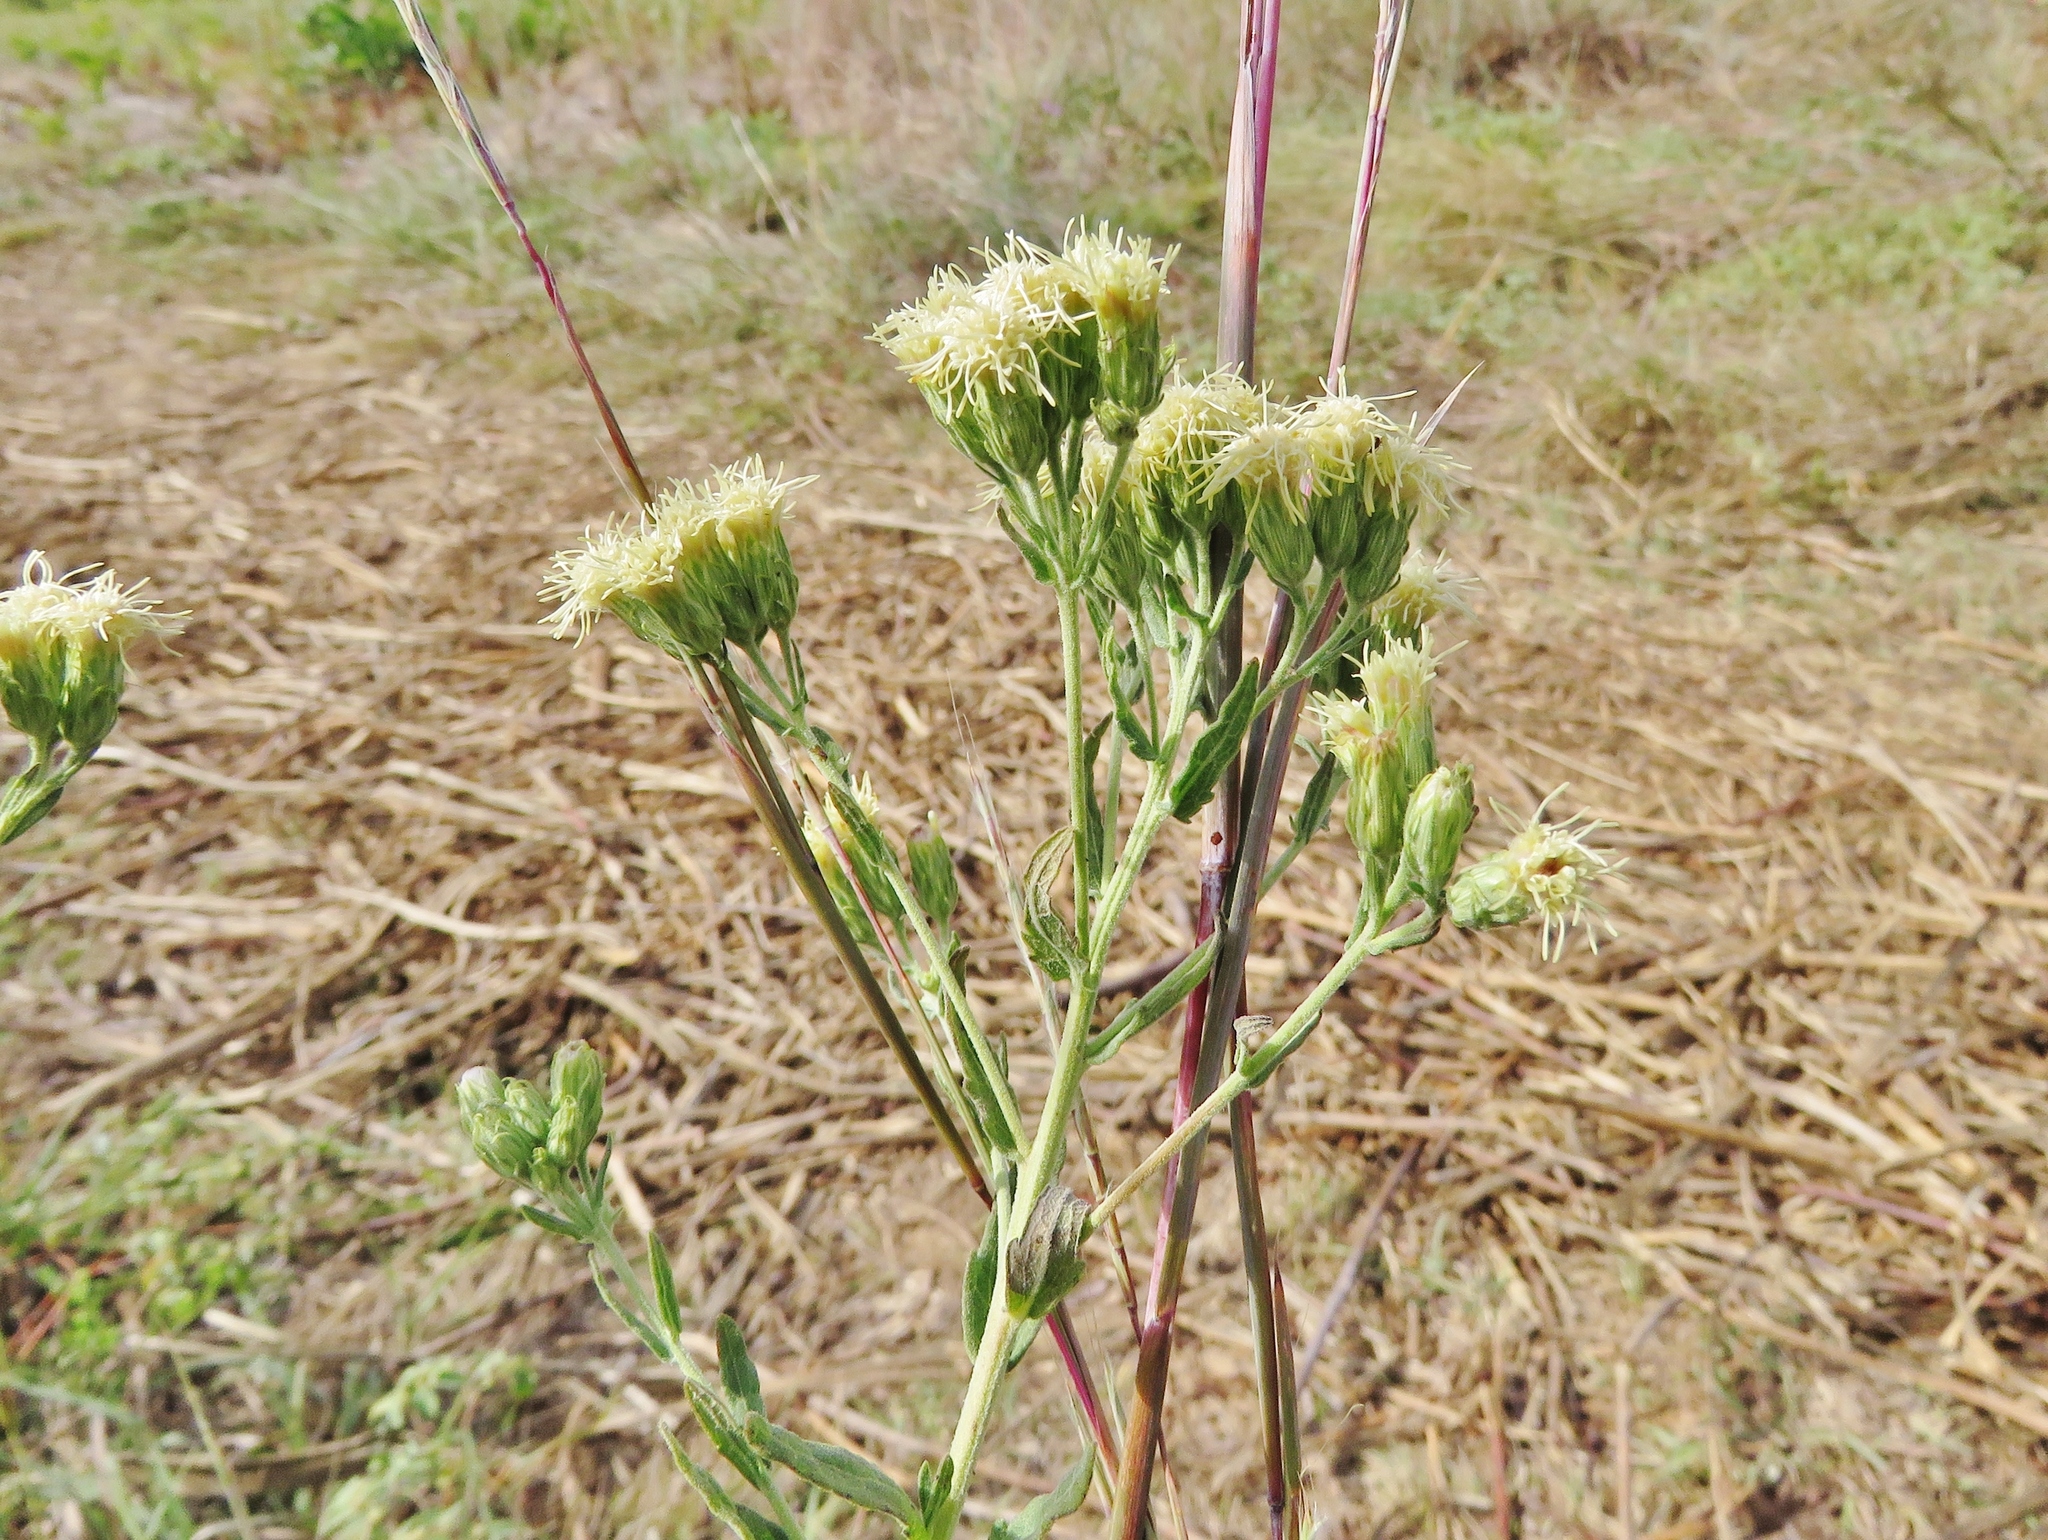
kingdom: Plantae
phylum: Tracheophyta
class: Magnoliopsida
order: Asterales
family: Asteraceae
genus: Brickellia
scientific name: Brickellia eupatorioides
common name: False boneset
